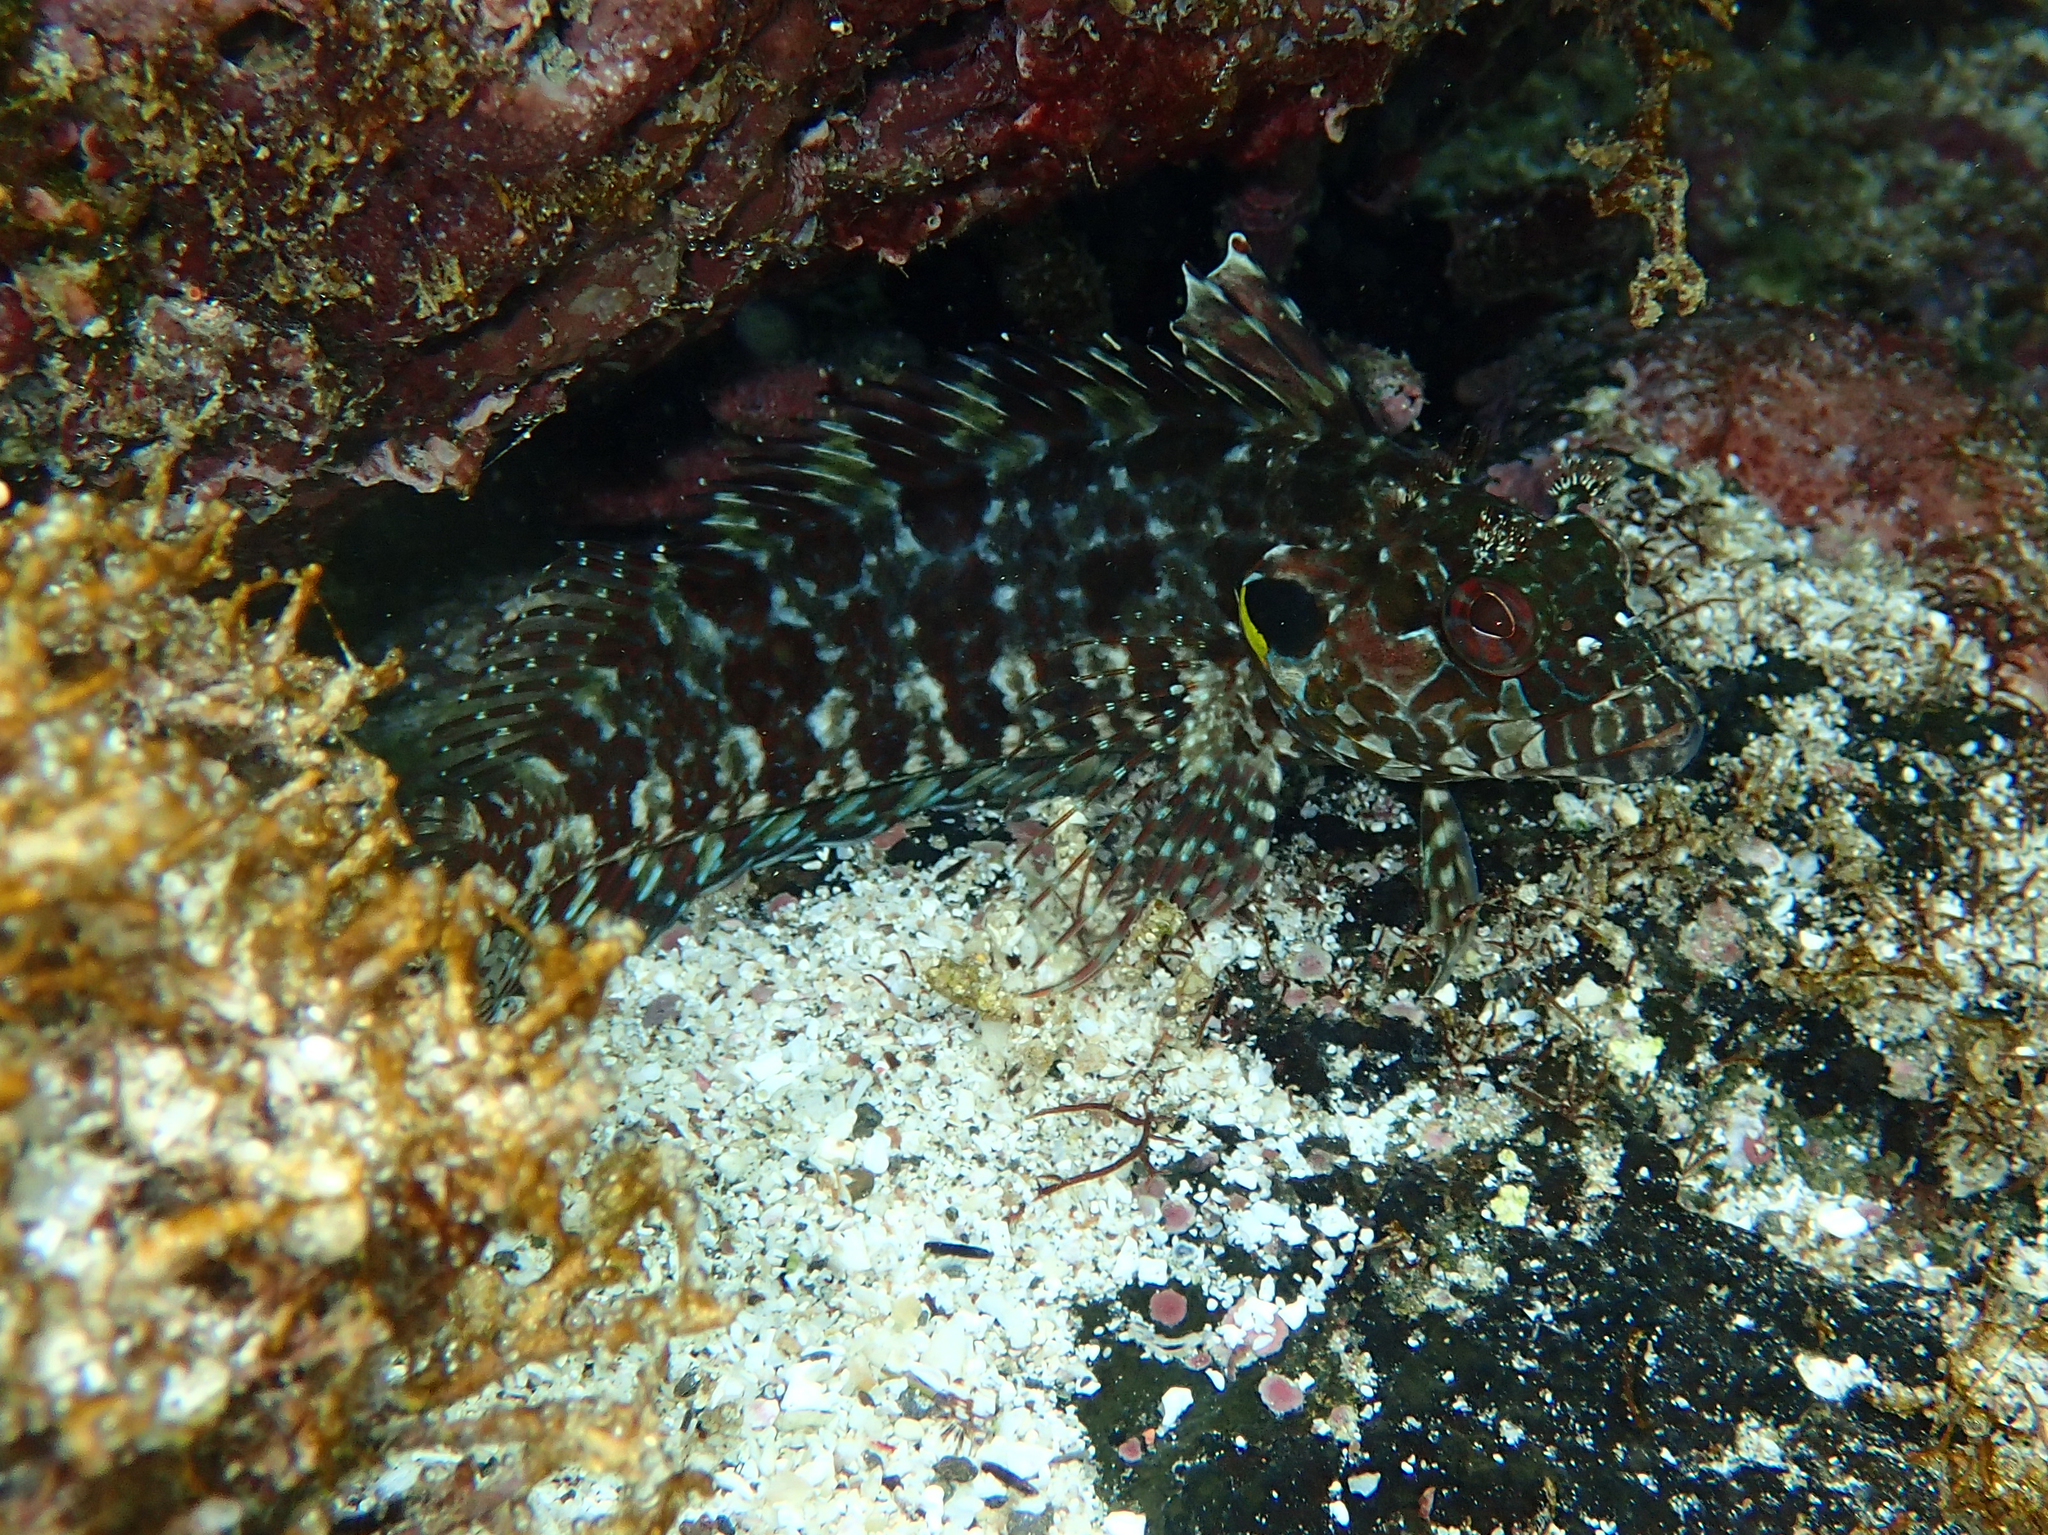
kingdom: Animalia
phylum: Chordata
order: Perciformes
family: Labrisomidae
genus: Gobioclinus
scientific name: Gobioclinus dendriticus
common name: Bravo clinid
